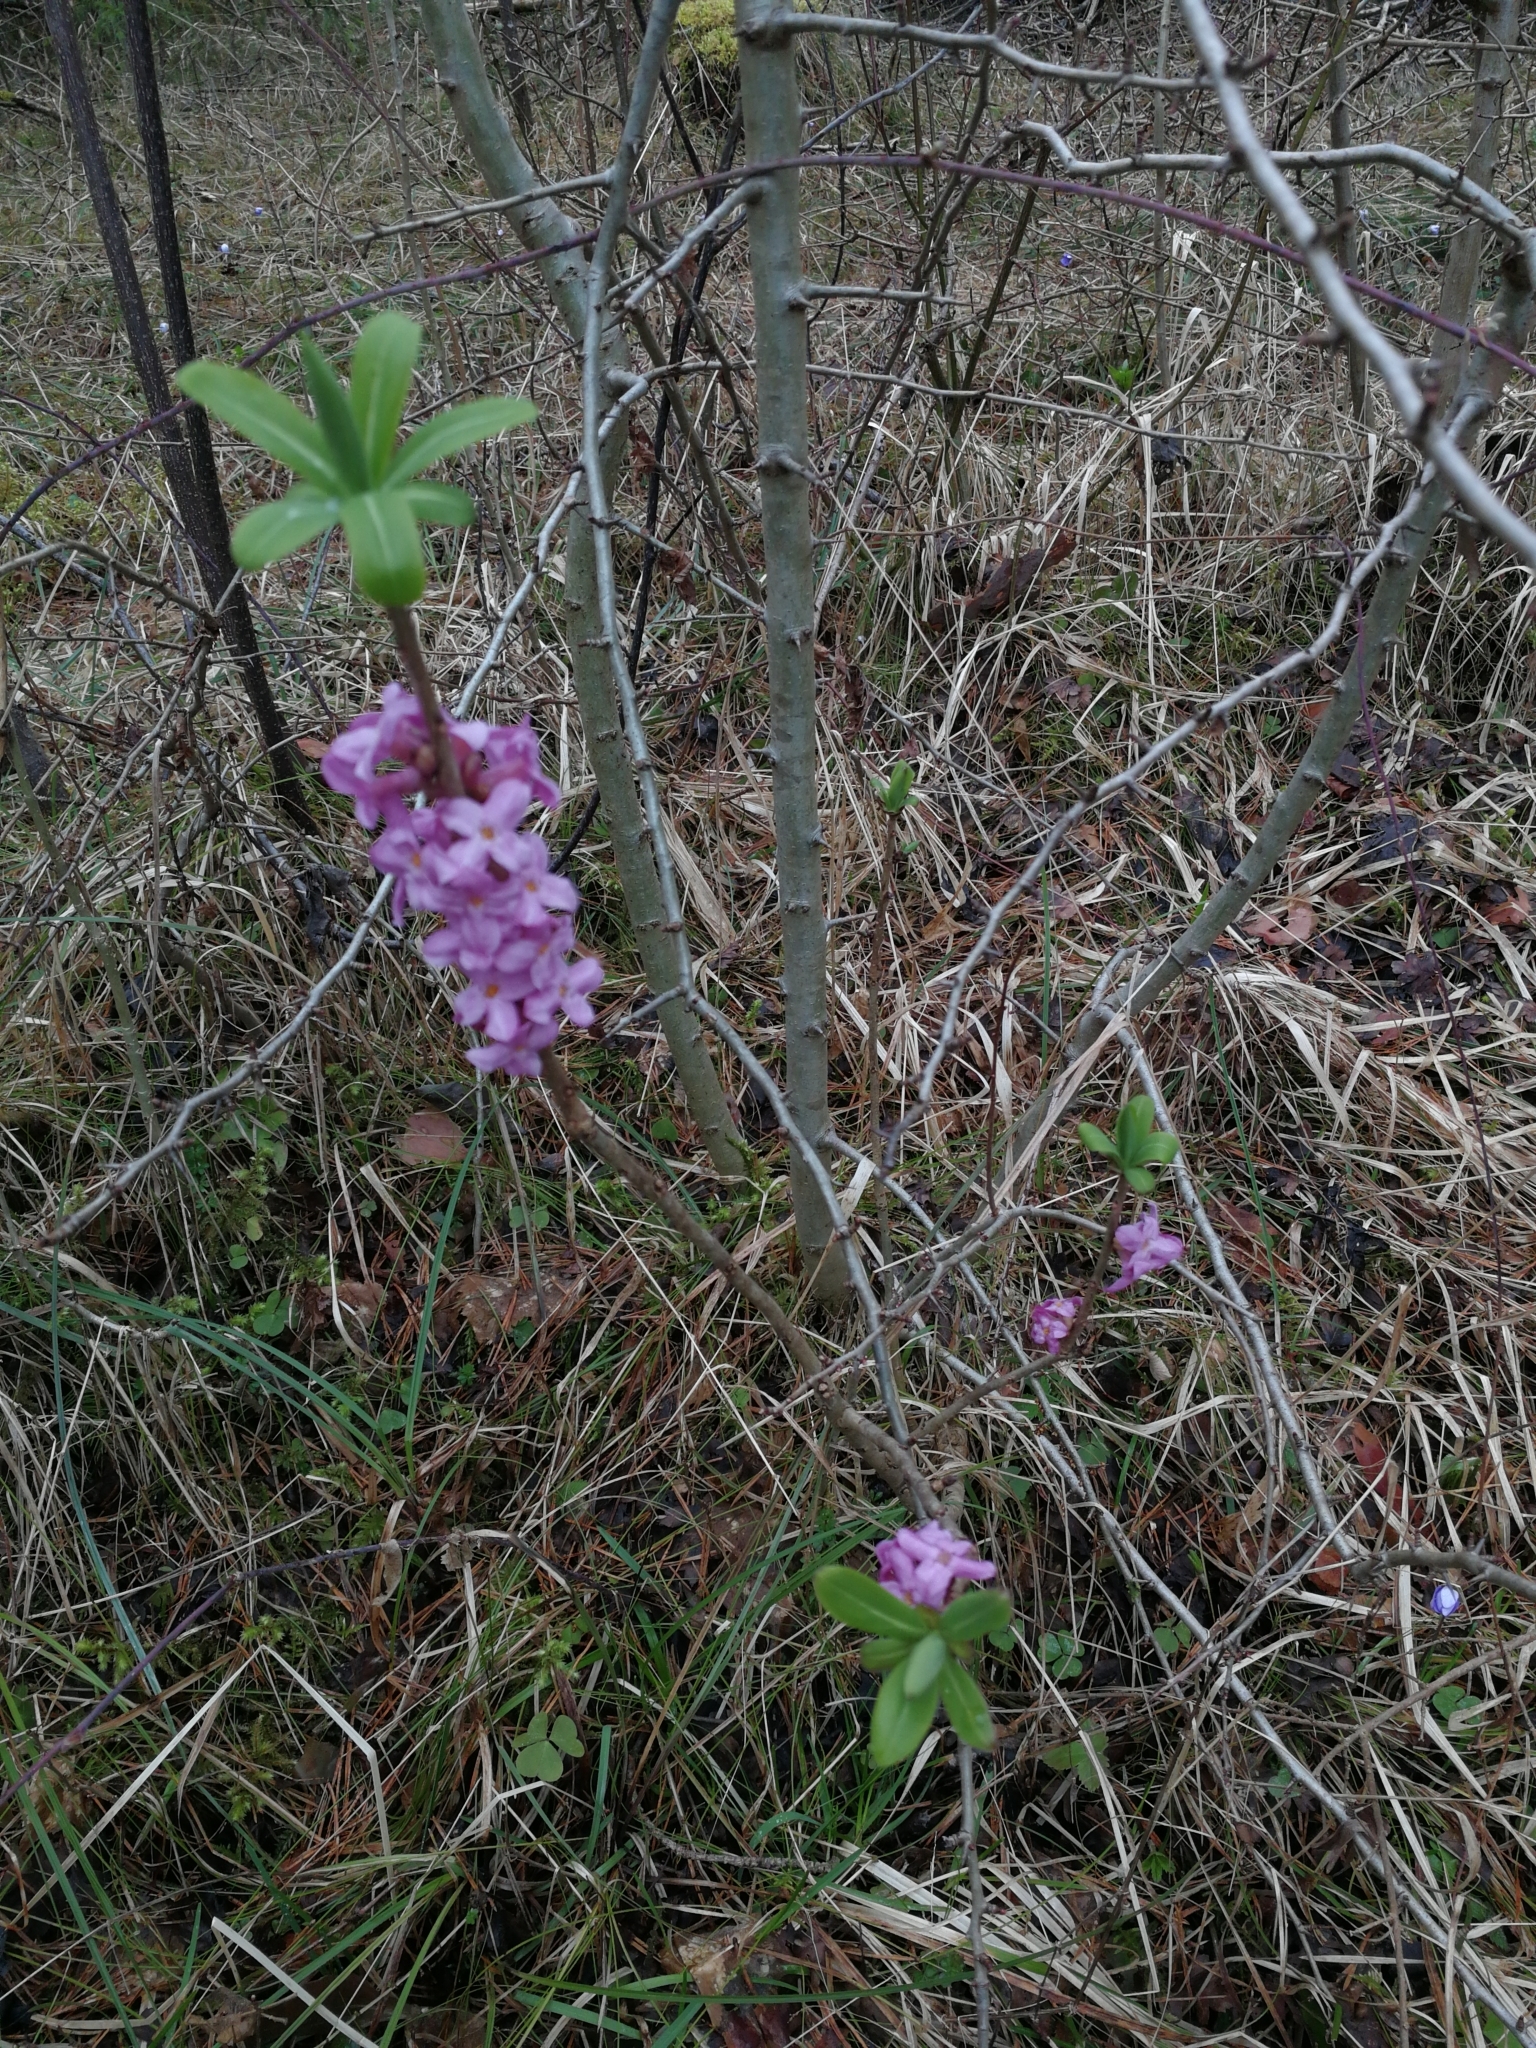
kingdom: Plantae
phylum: Tracheophyta
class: Magnoliopsida
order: Malvales
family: Thymelaeaceae
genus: Daphne
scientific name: Daphne mezereum
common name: Mezereon
